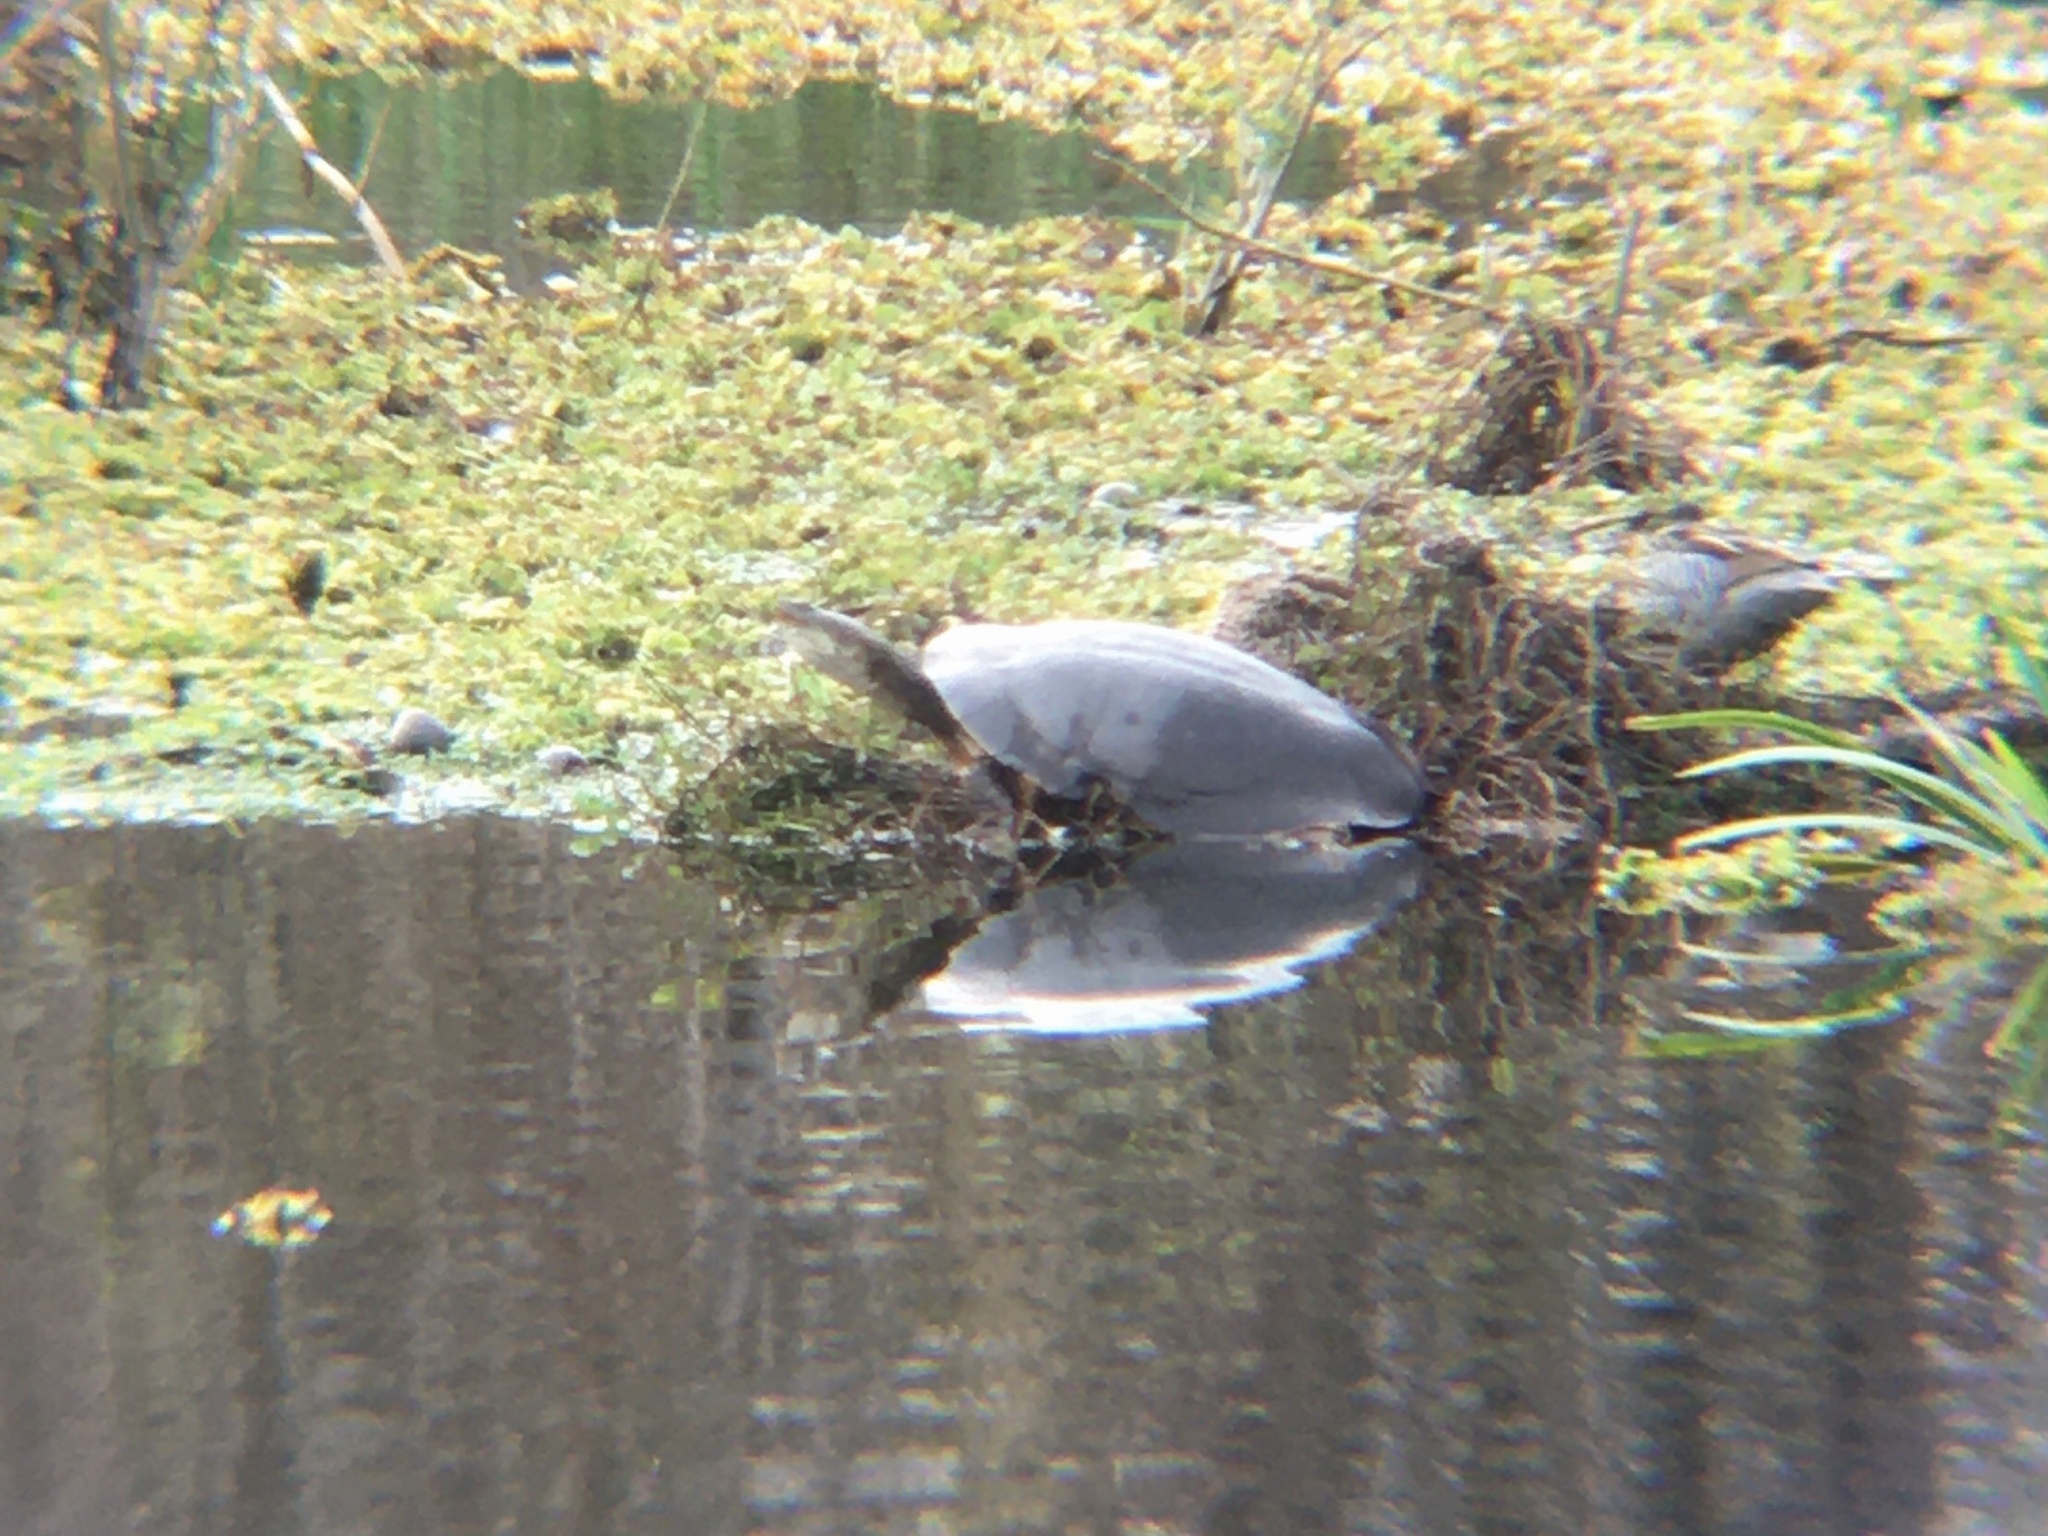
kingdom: Animalia
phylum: Chordata
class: Testudines
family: Chelidae
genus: Phrynops
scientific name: Phrynops hilarii
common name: Side-necked turtle of saint hillaire
